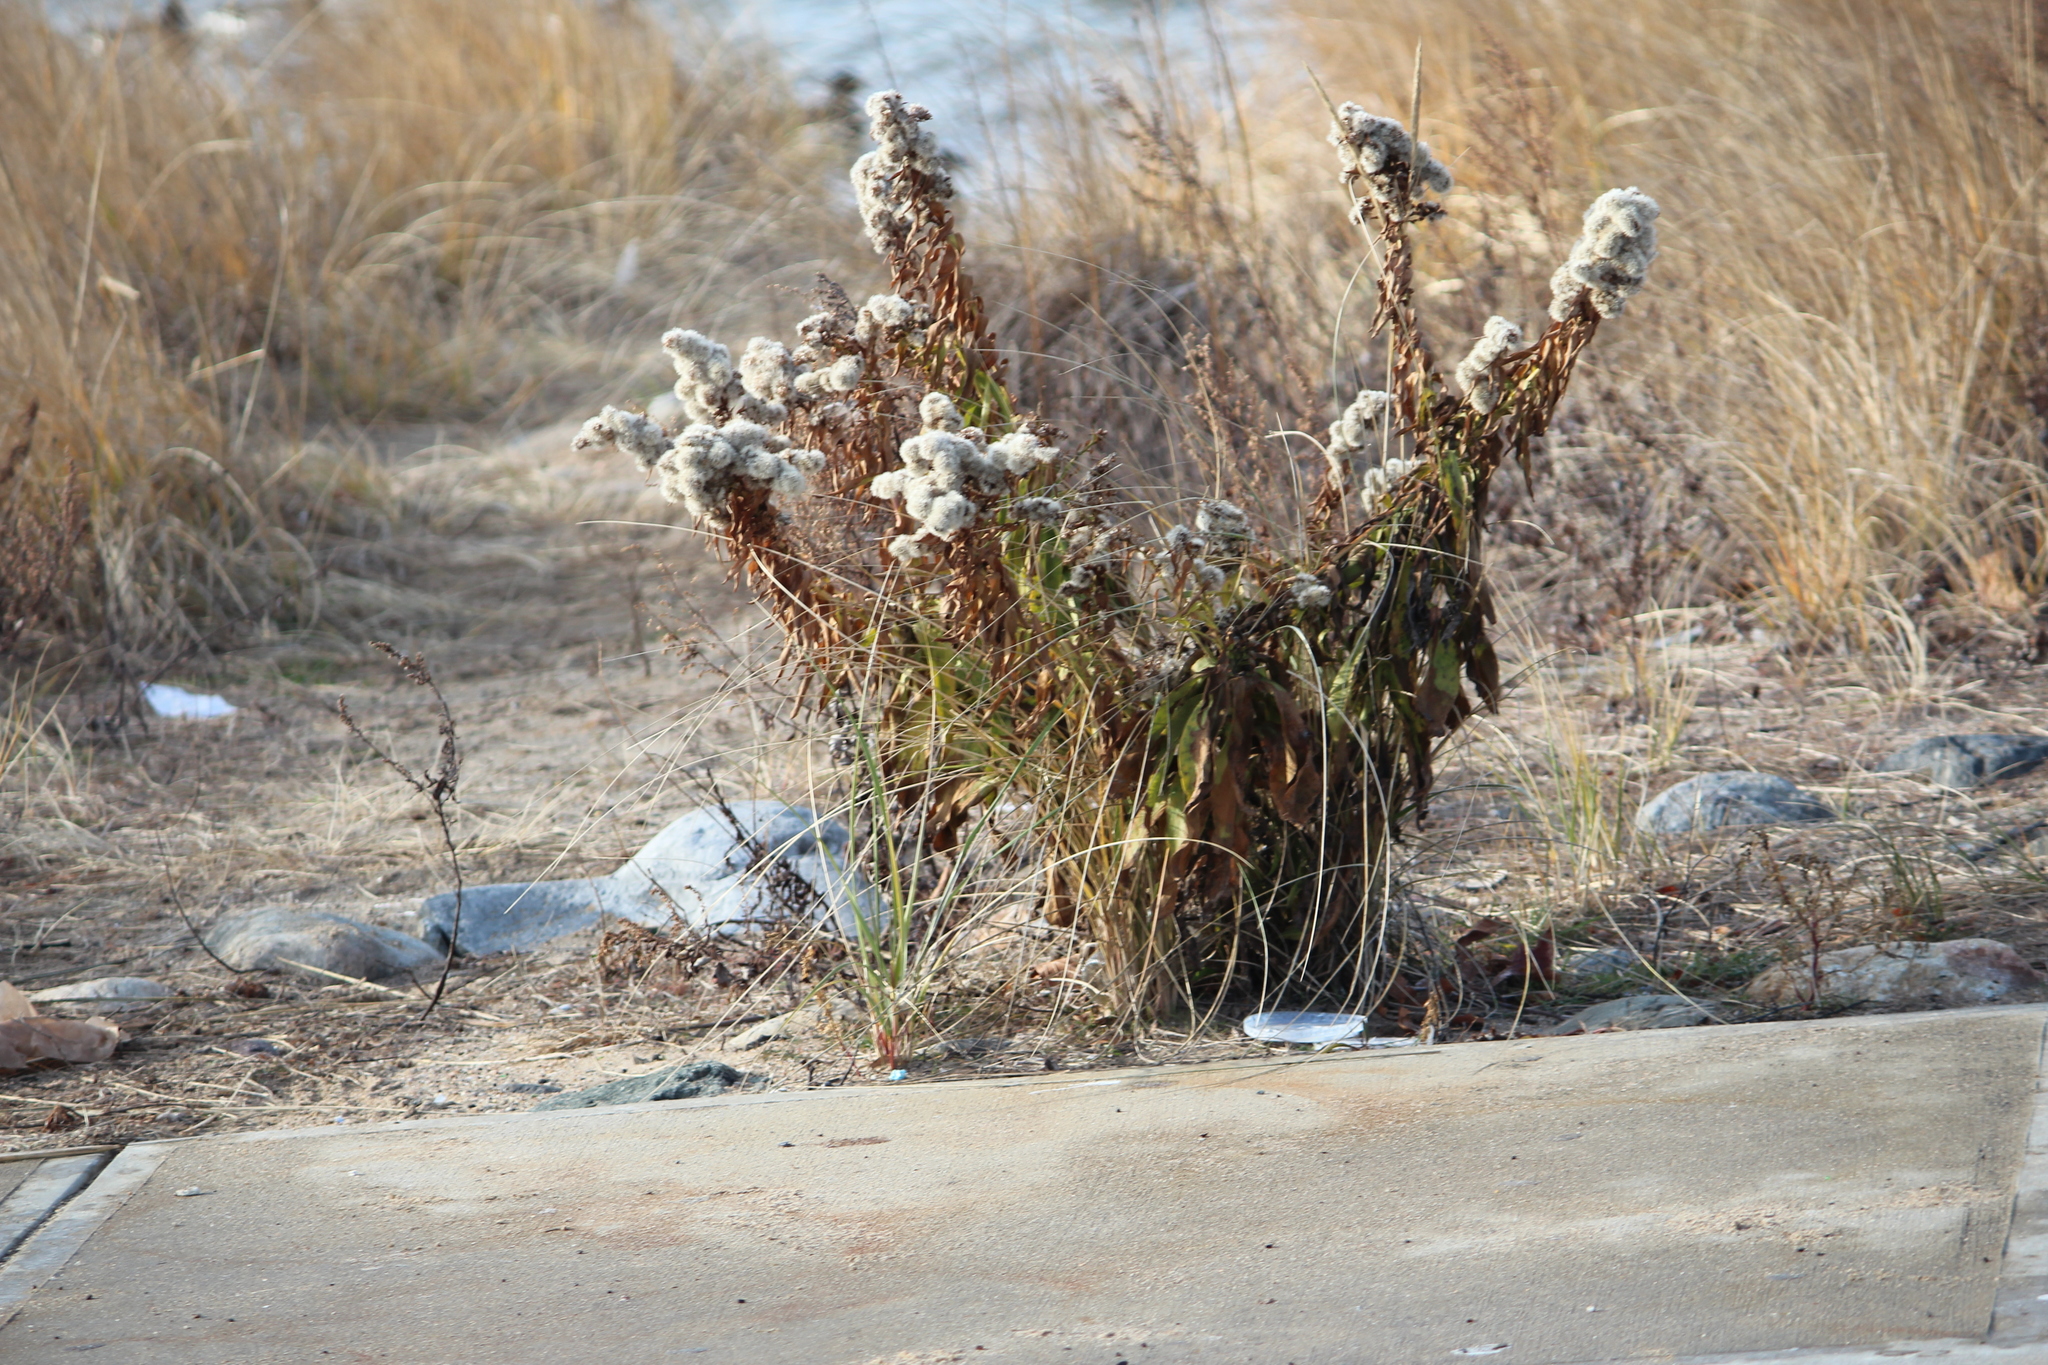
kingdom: Plantae
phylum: Tracheophyta
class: Magnoliopsida
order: Asterales
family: Asteraceae
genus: Solidago
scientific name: Solidago sempervirens
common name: Salt-marsh goldenrod
